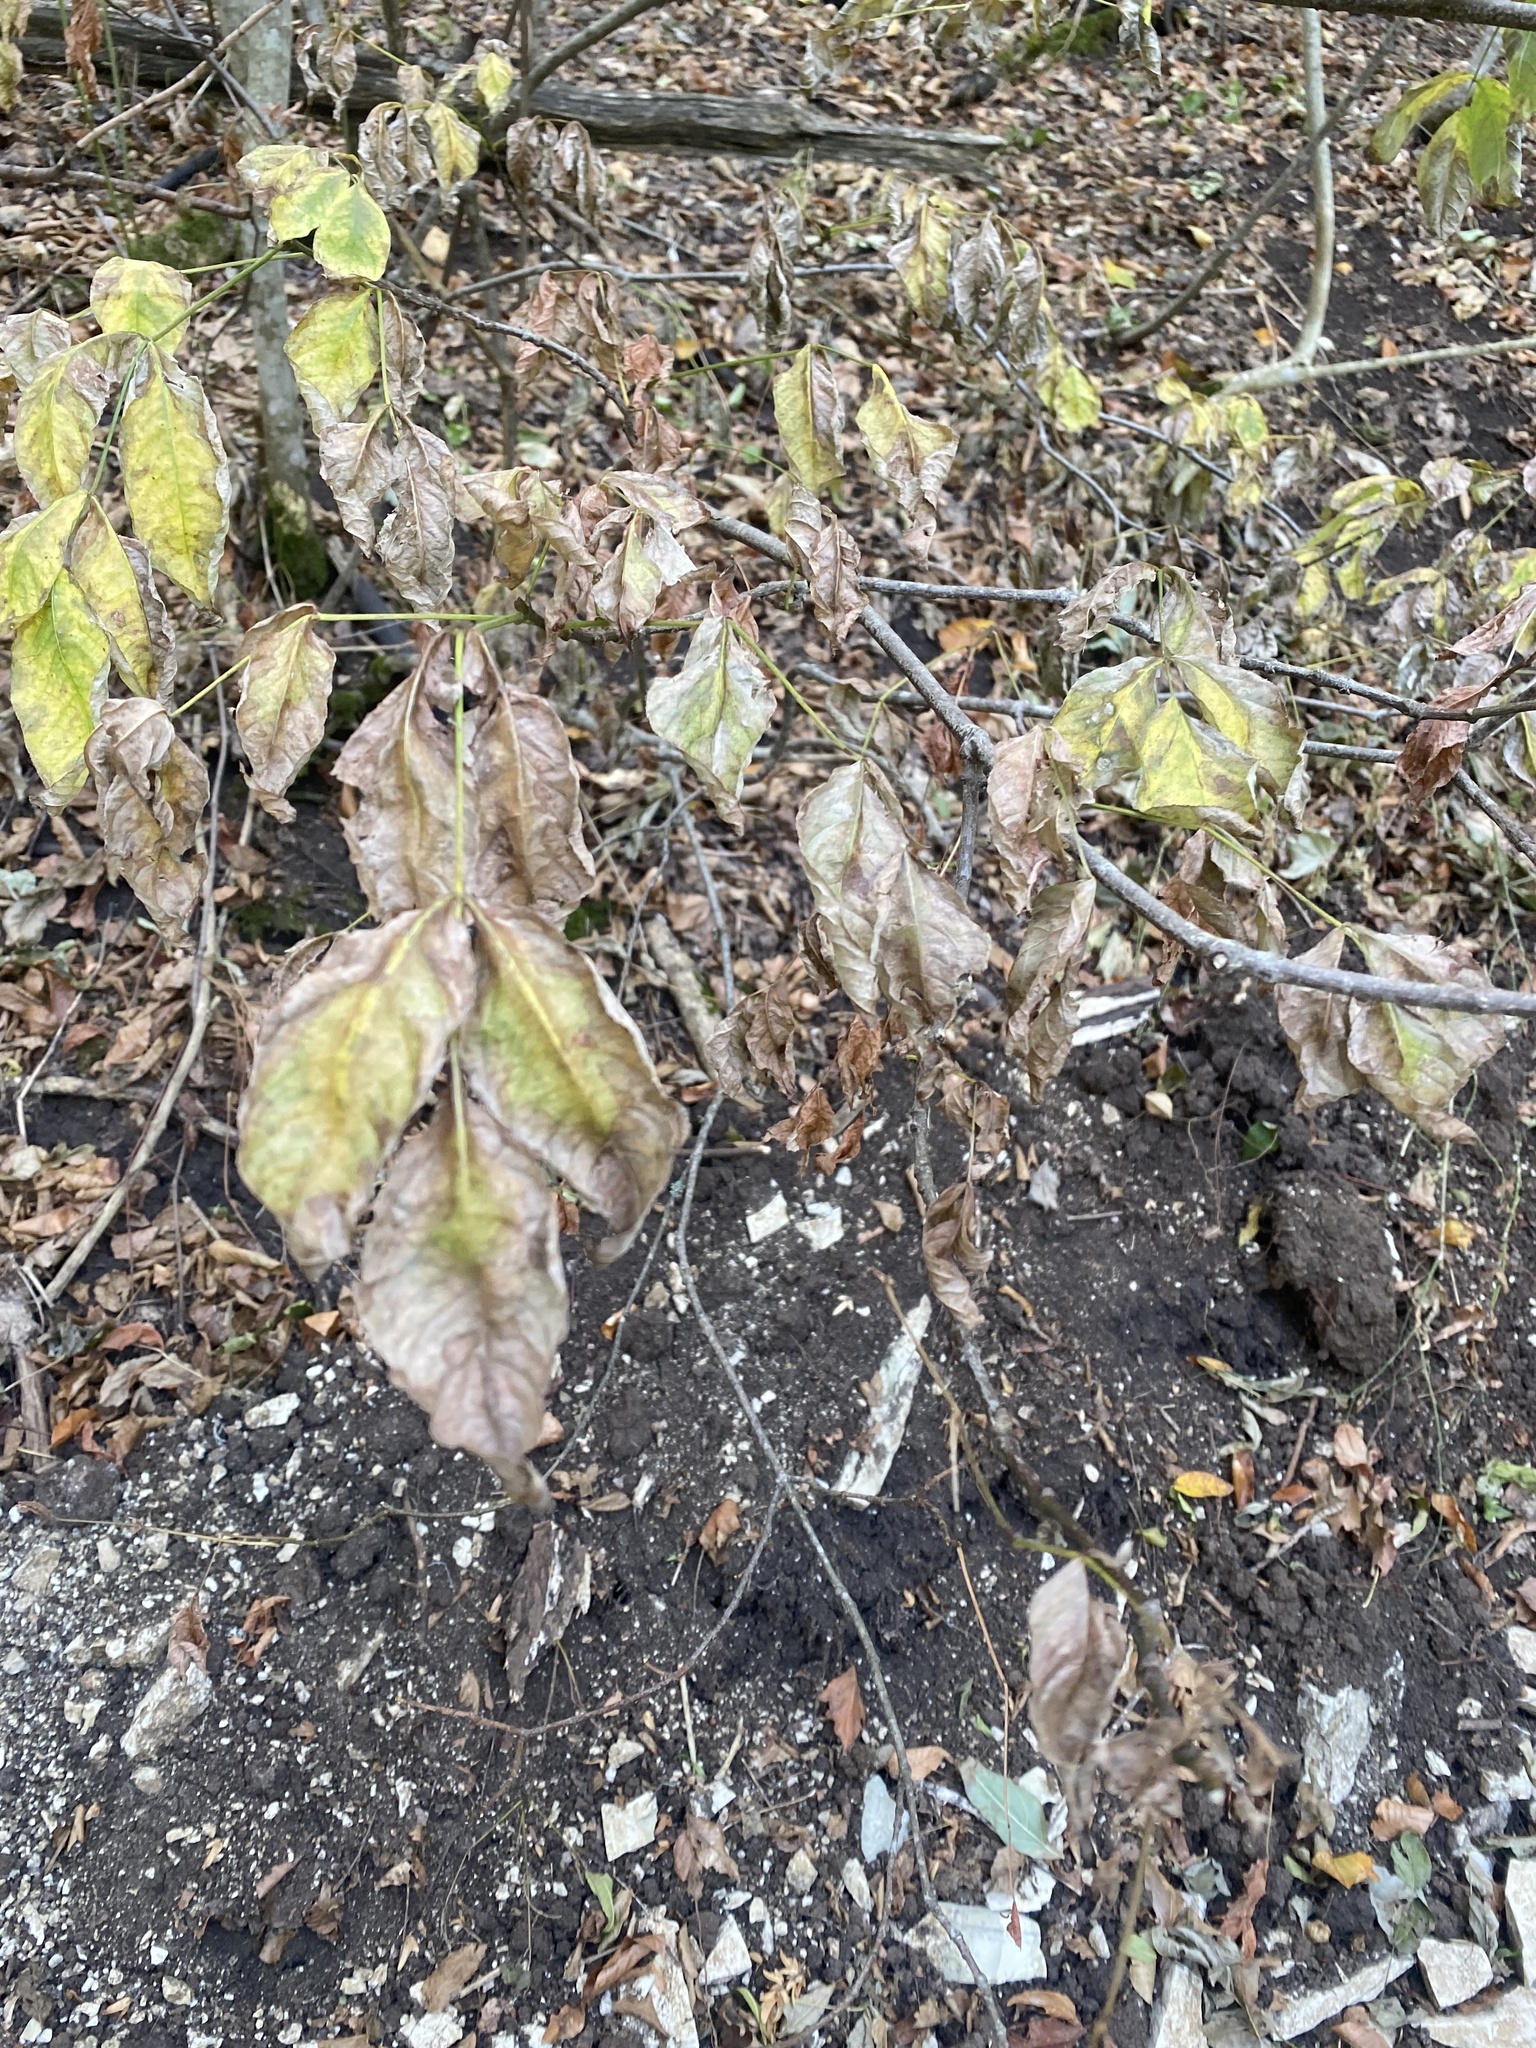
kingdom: Plantae
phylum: Tracheophyta
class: Magnoliopsida
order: Crossosomatales
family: Staphyleaceae
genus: Staphylea
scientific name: Staphylea pinnata
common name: Bladdernut
